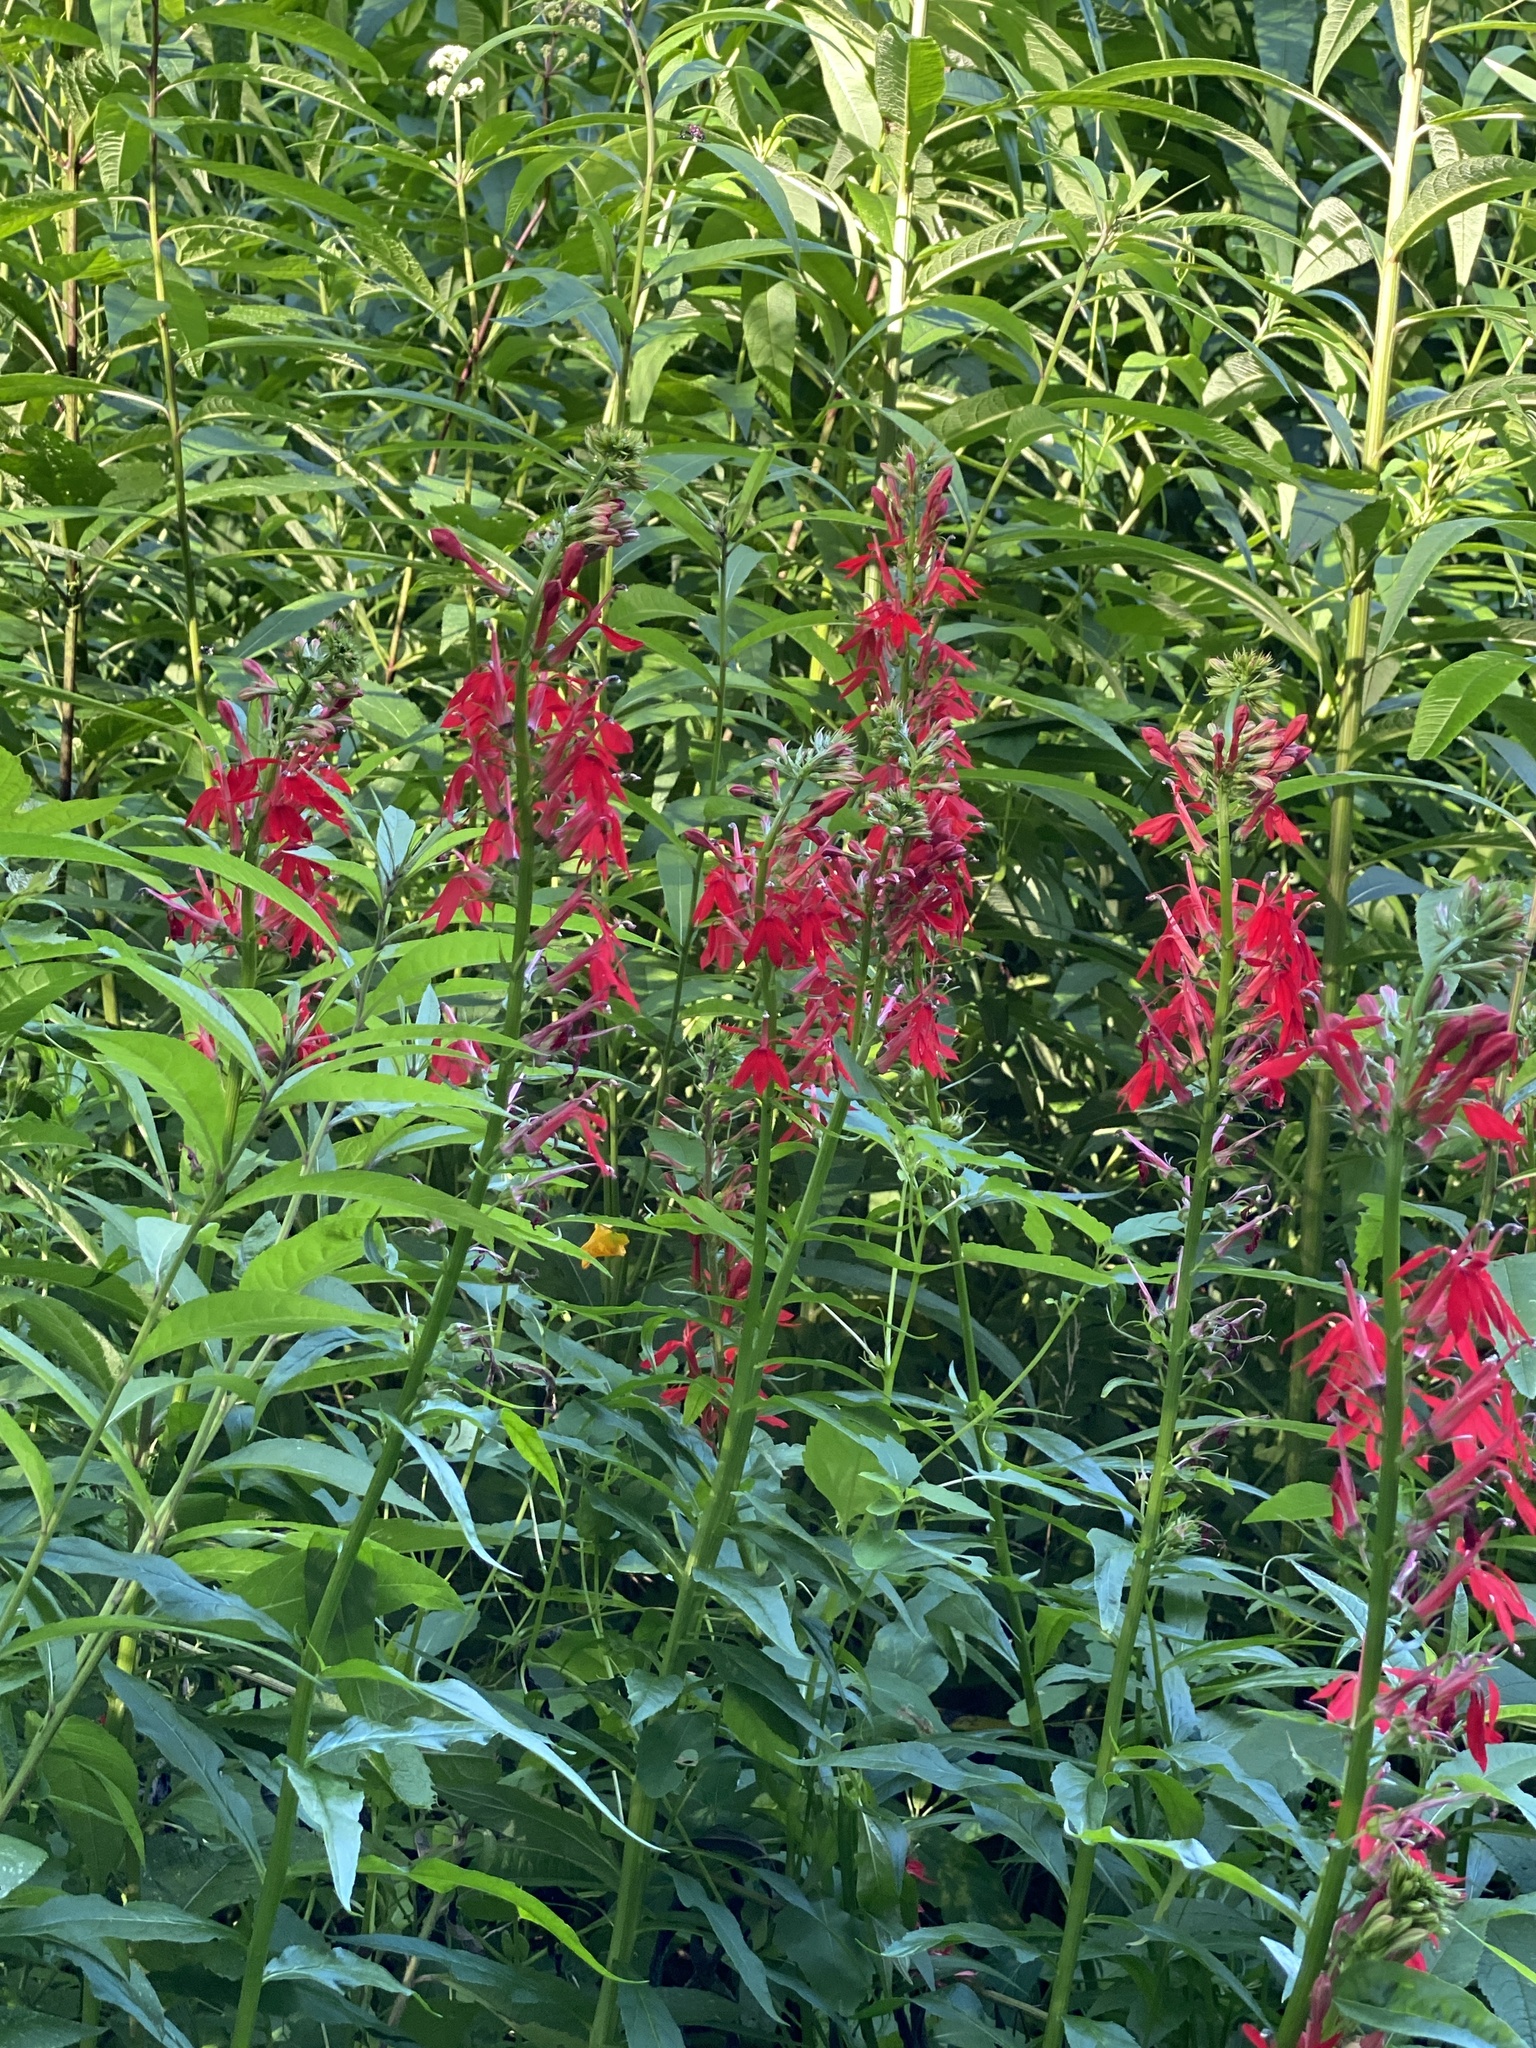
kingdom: Plantae
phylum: Tracheophyta
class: Magnoliopsida
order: Asterales
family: Campanulaceae
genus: Lobelia
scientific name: Lobelia cardinalis
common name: Cardinal flower
